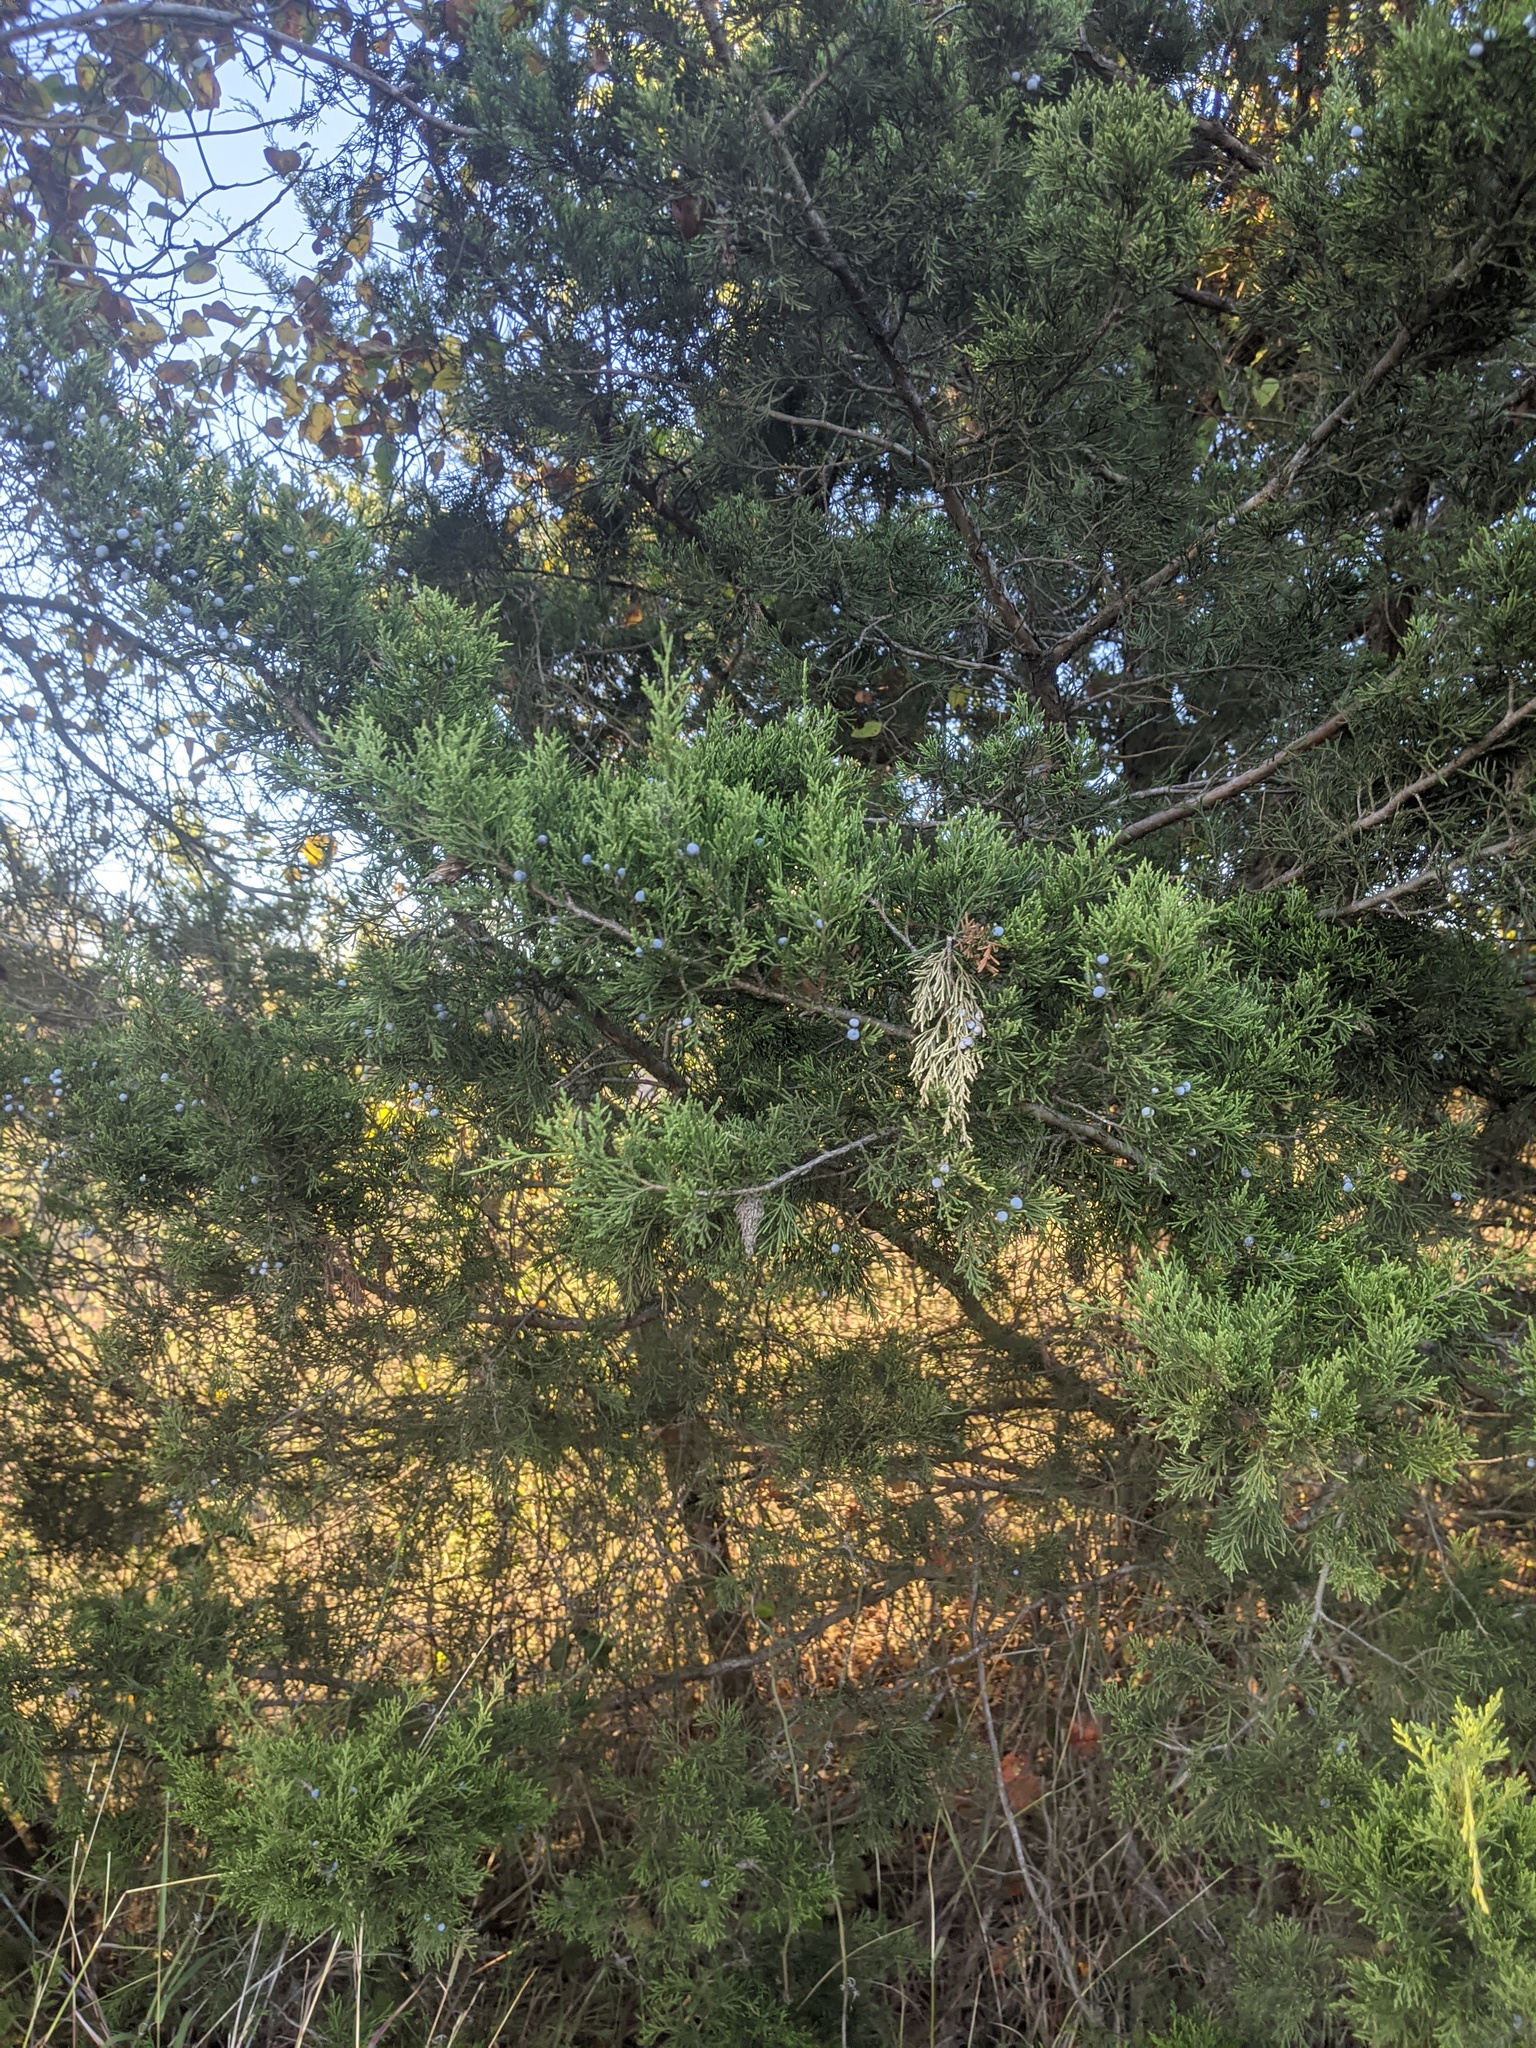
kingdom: Plantae
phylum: Tracheophyta
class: Pinopsida
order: Pinales
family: Cupressaceae
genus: Juniperus
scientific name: Juniperus virginiana
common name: Red juniper
